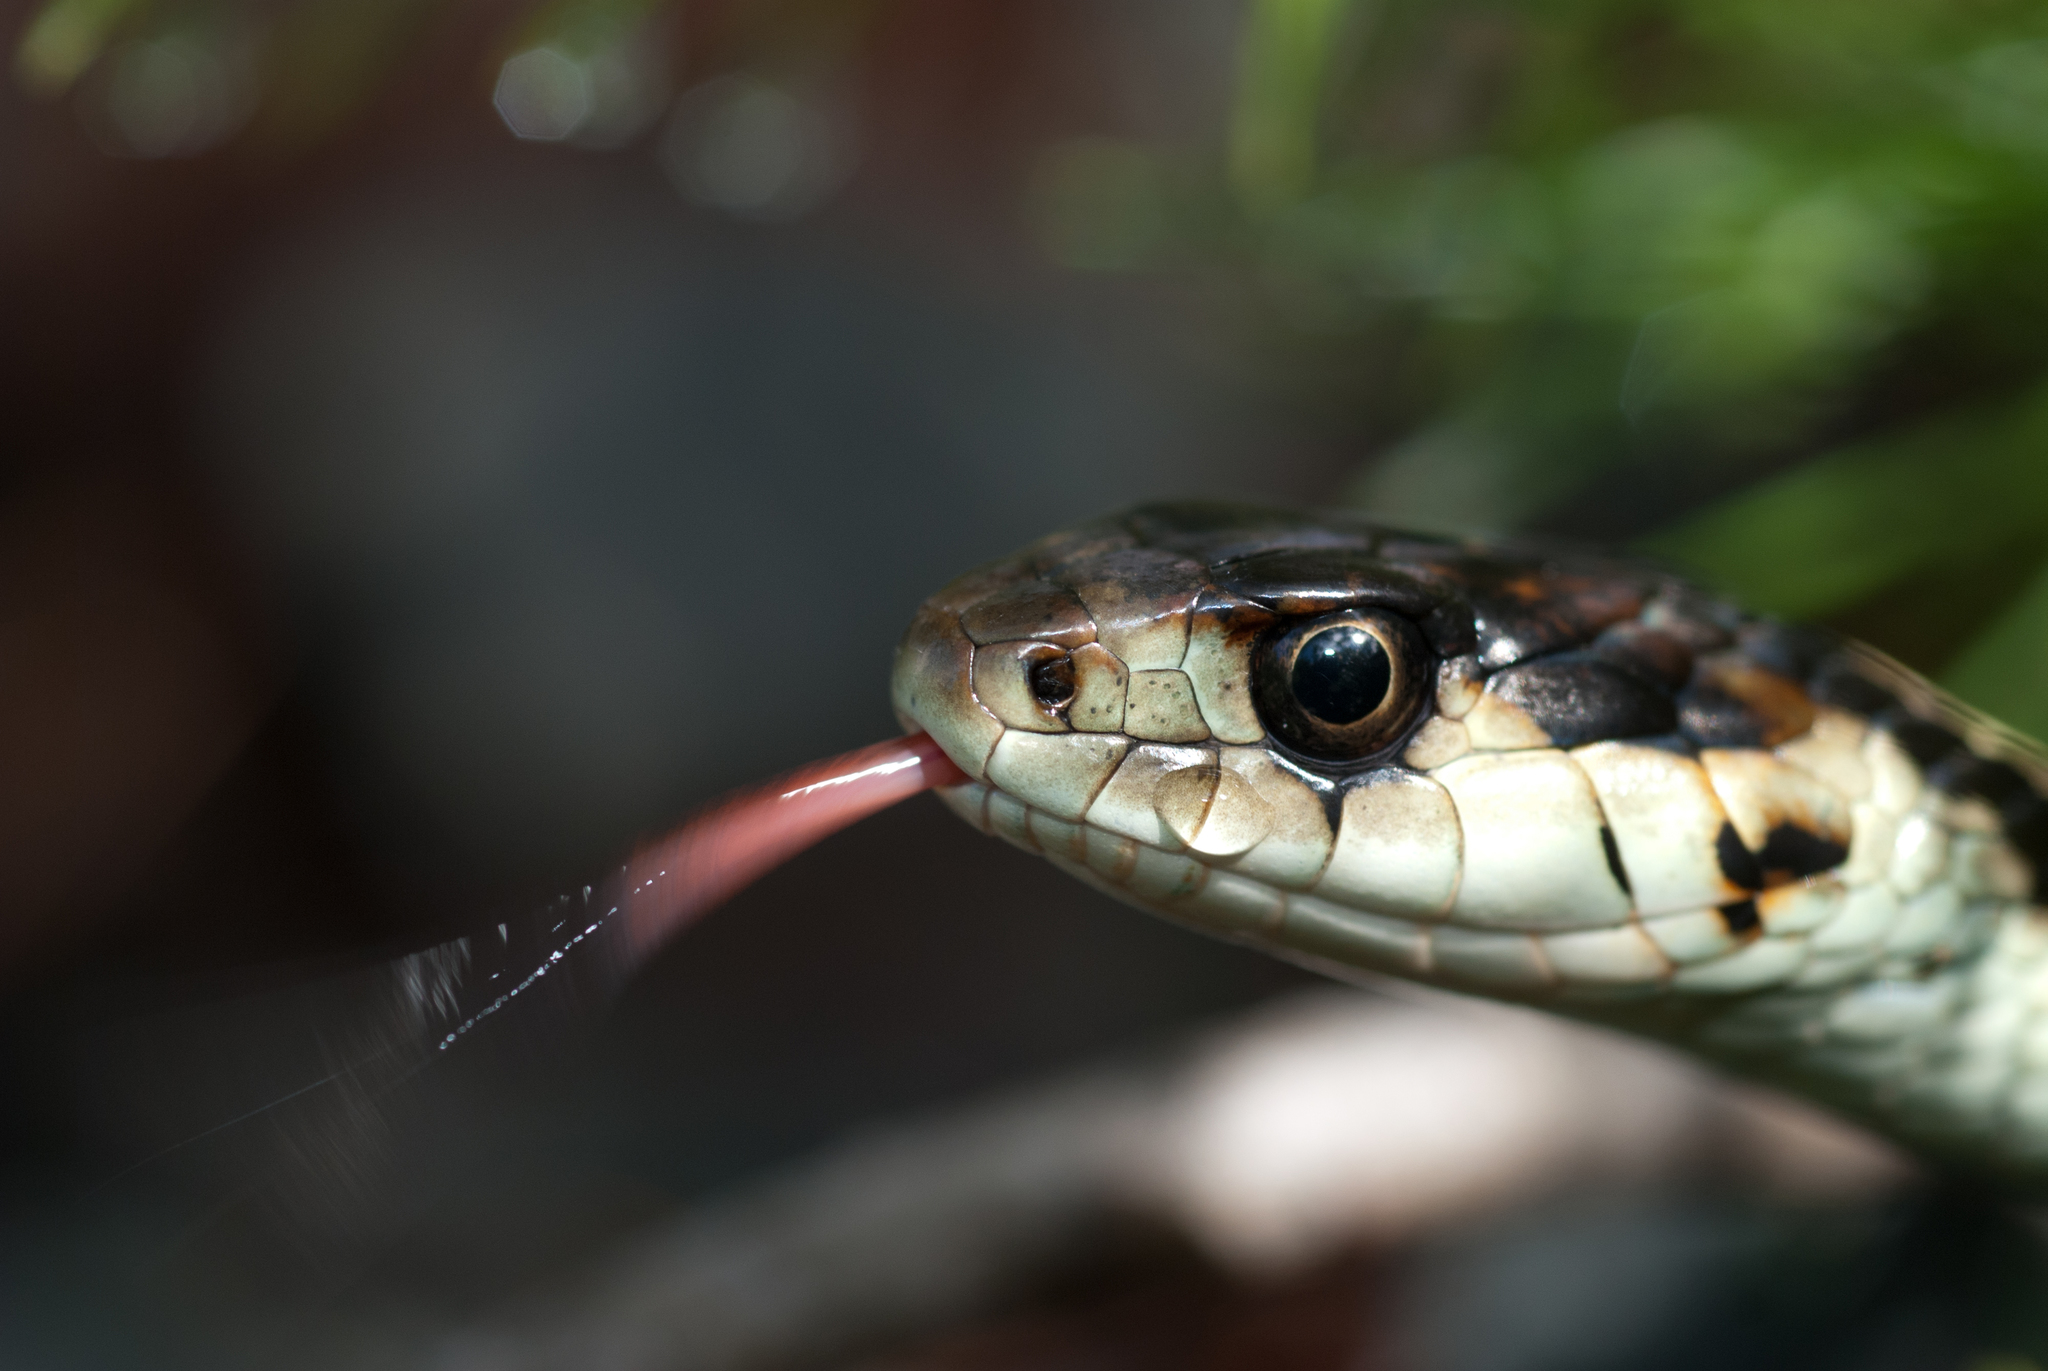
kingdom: Animalia
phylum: Chordata
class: Squamata
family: Colubridae
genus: Thamnophis
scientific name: Thamnophis ordinoides
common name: Northwestern garter snake
